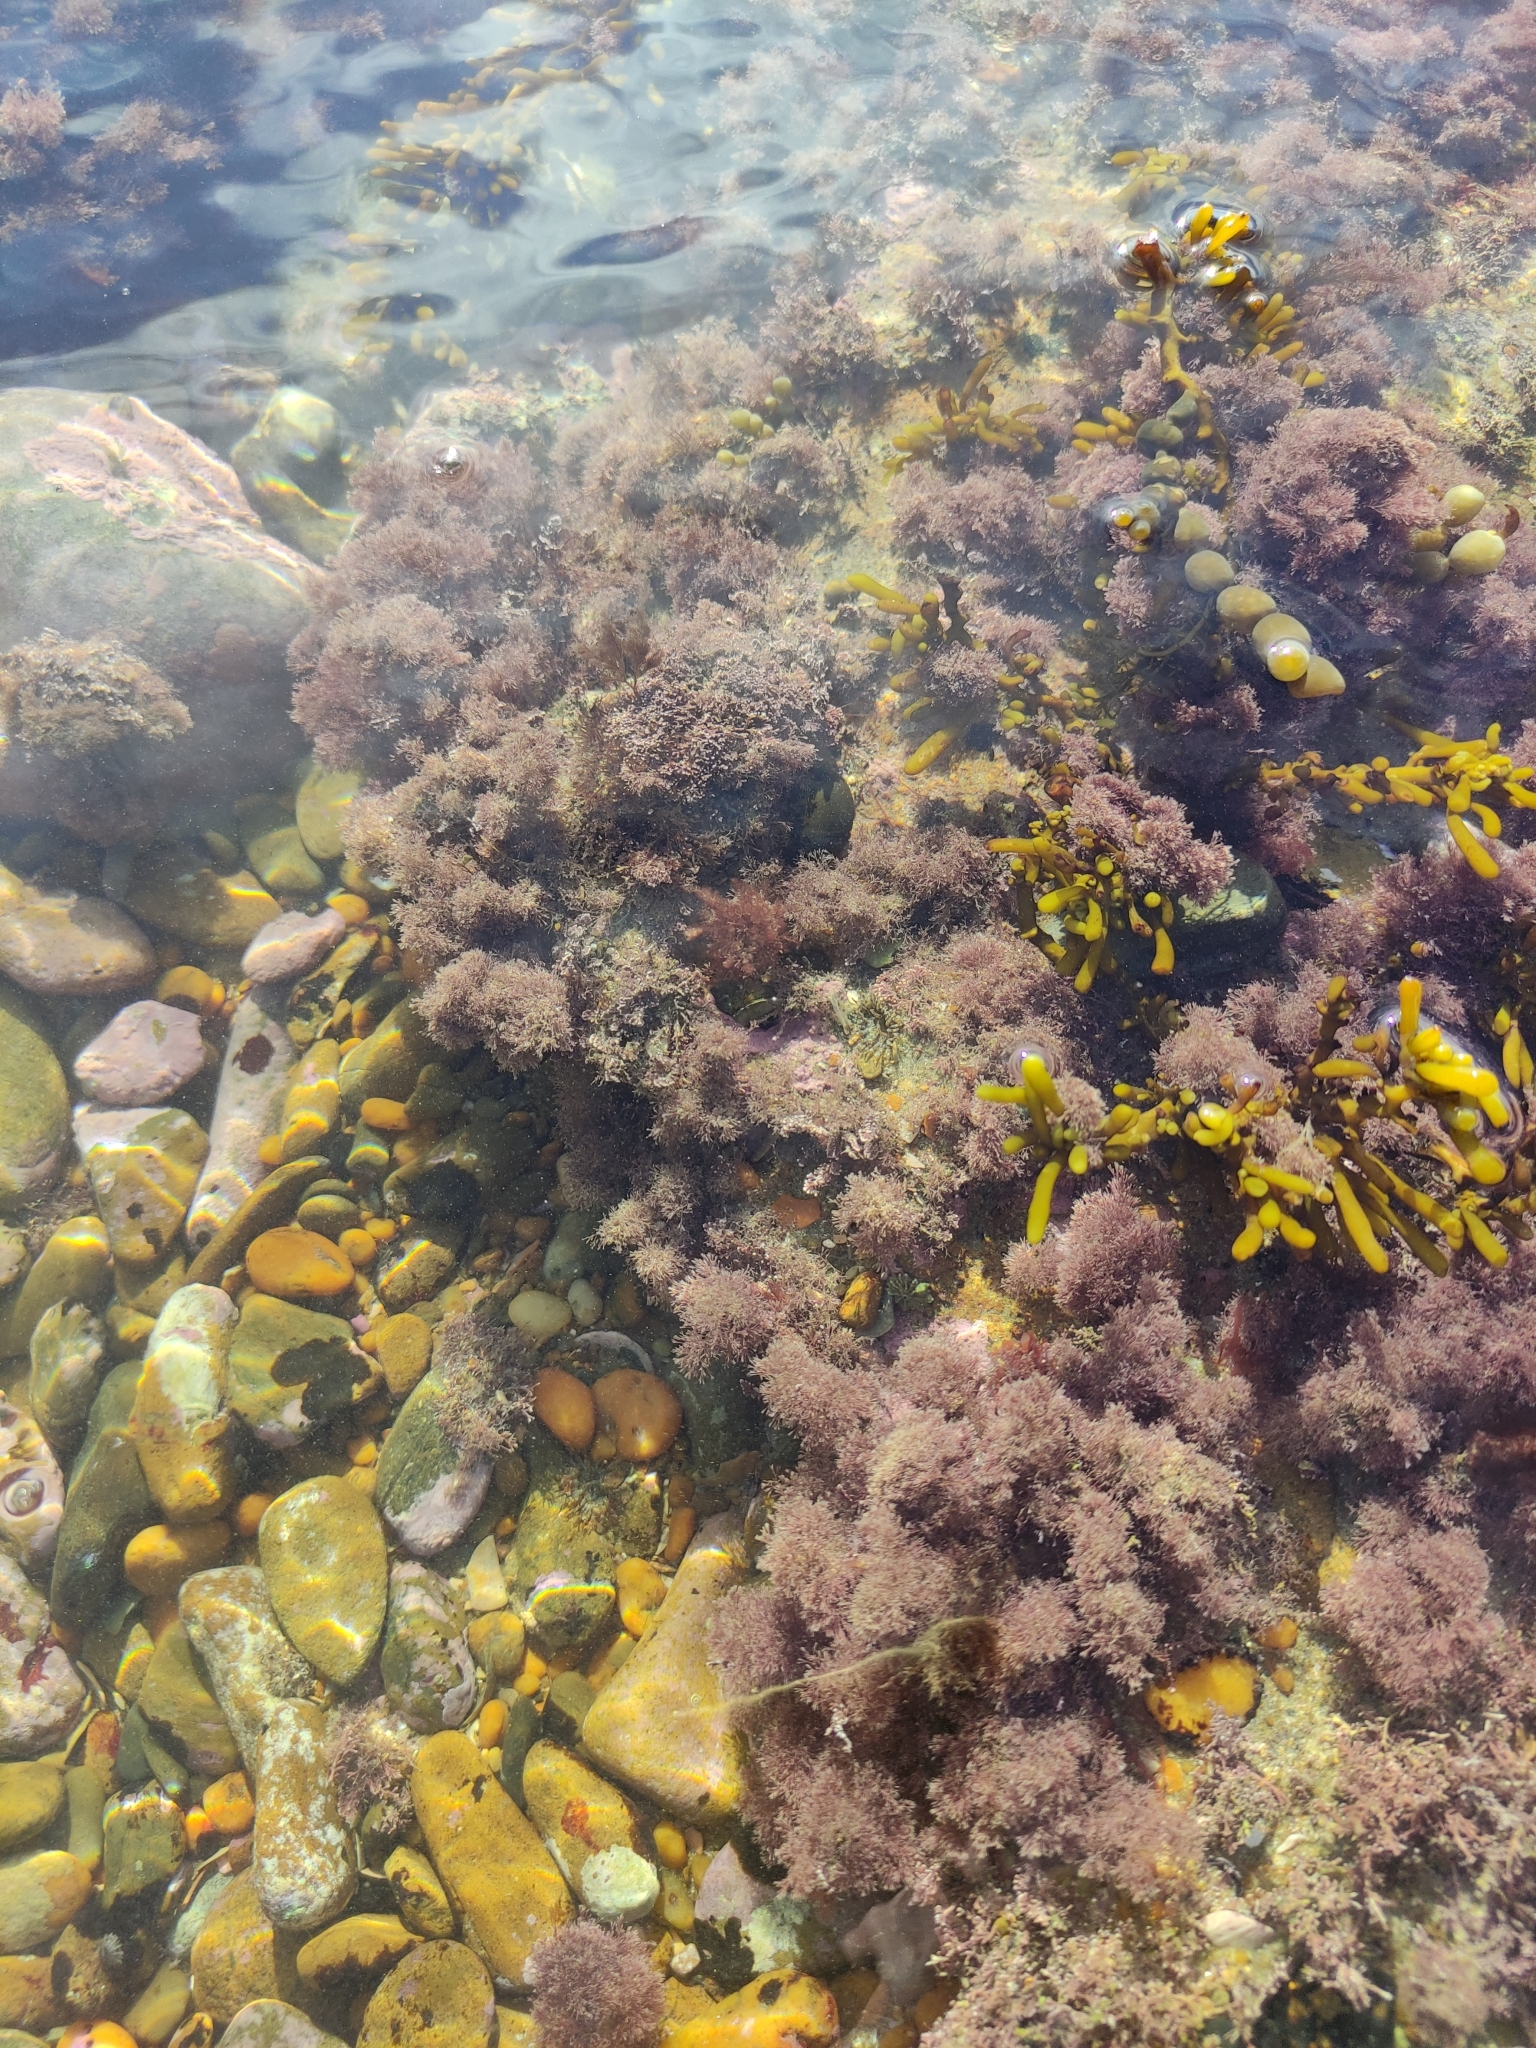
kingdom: Plantae
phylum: Rhodophyta
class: Florideophyceae
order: Corallinales
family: Corallinaceae
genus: Jania
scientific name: Jania sphaeroramosa
